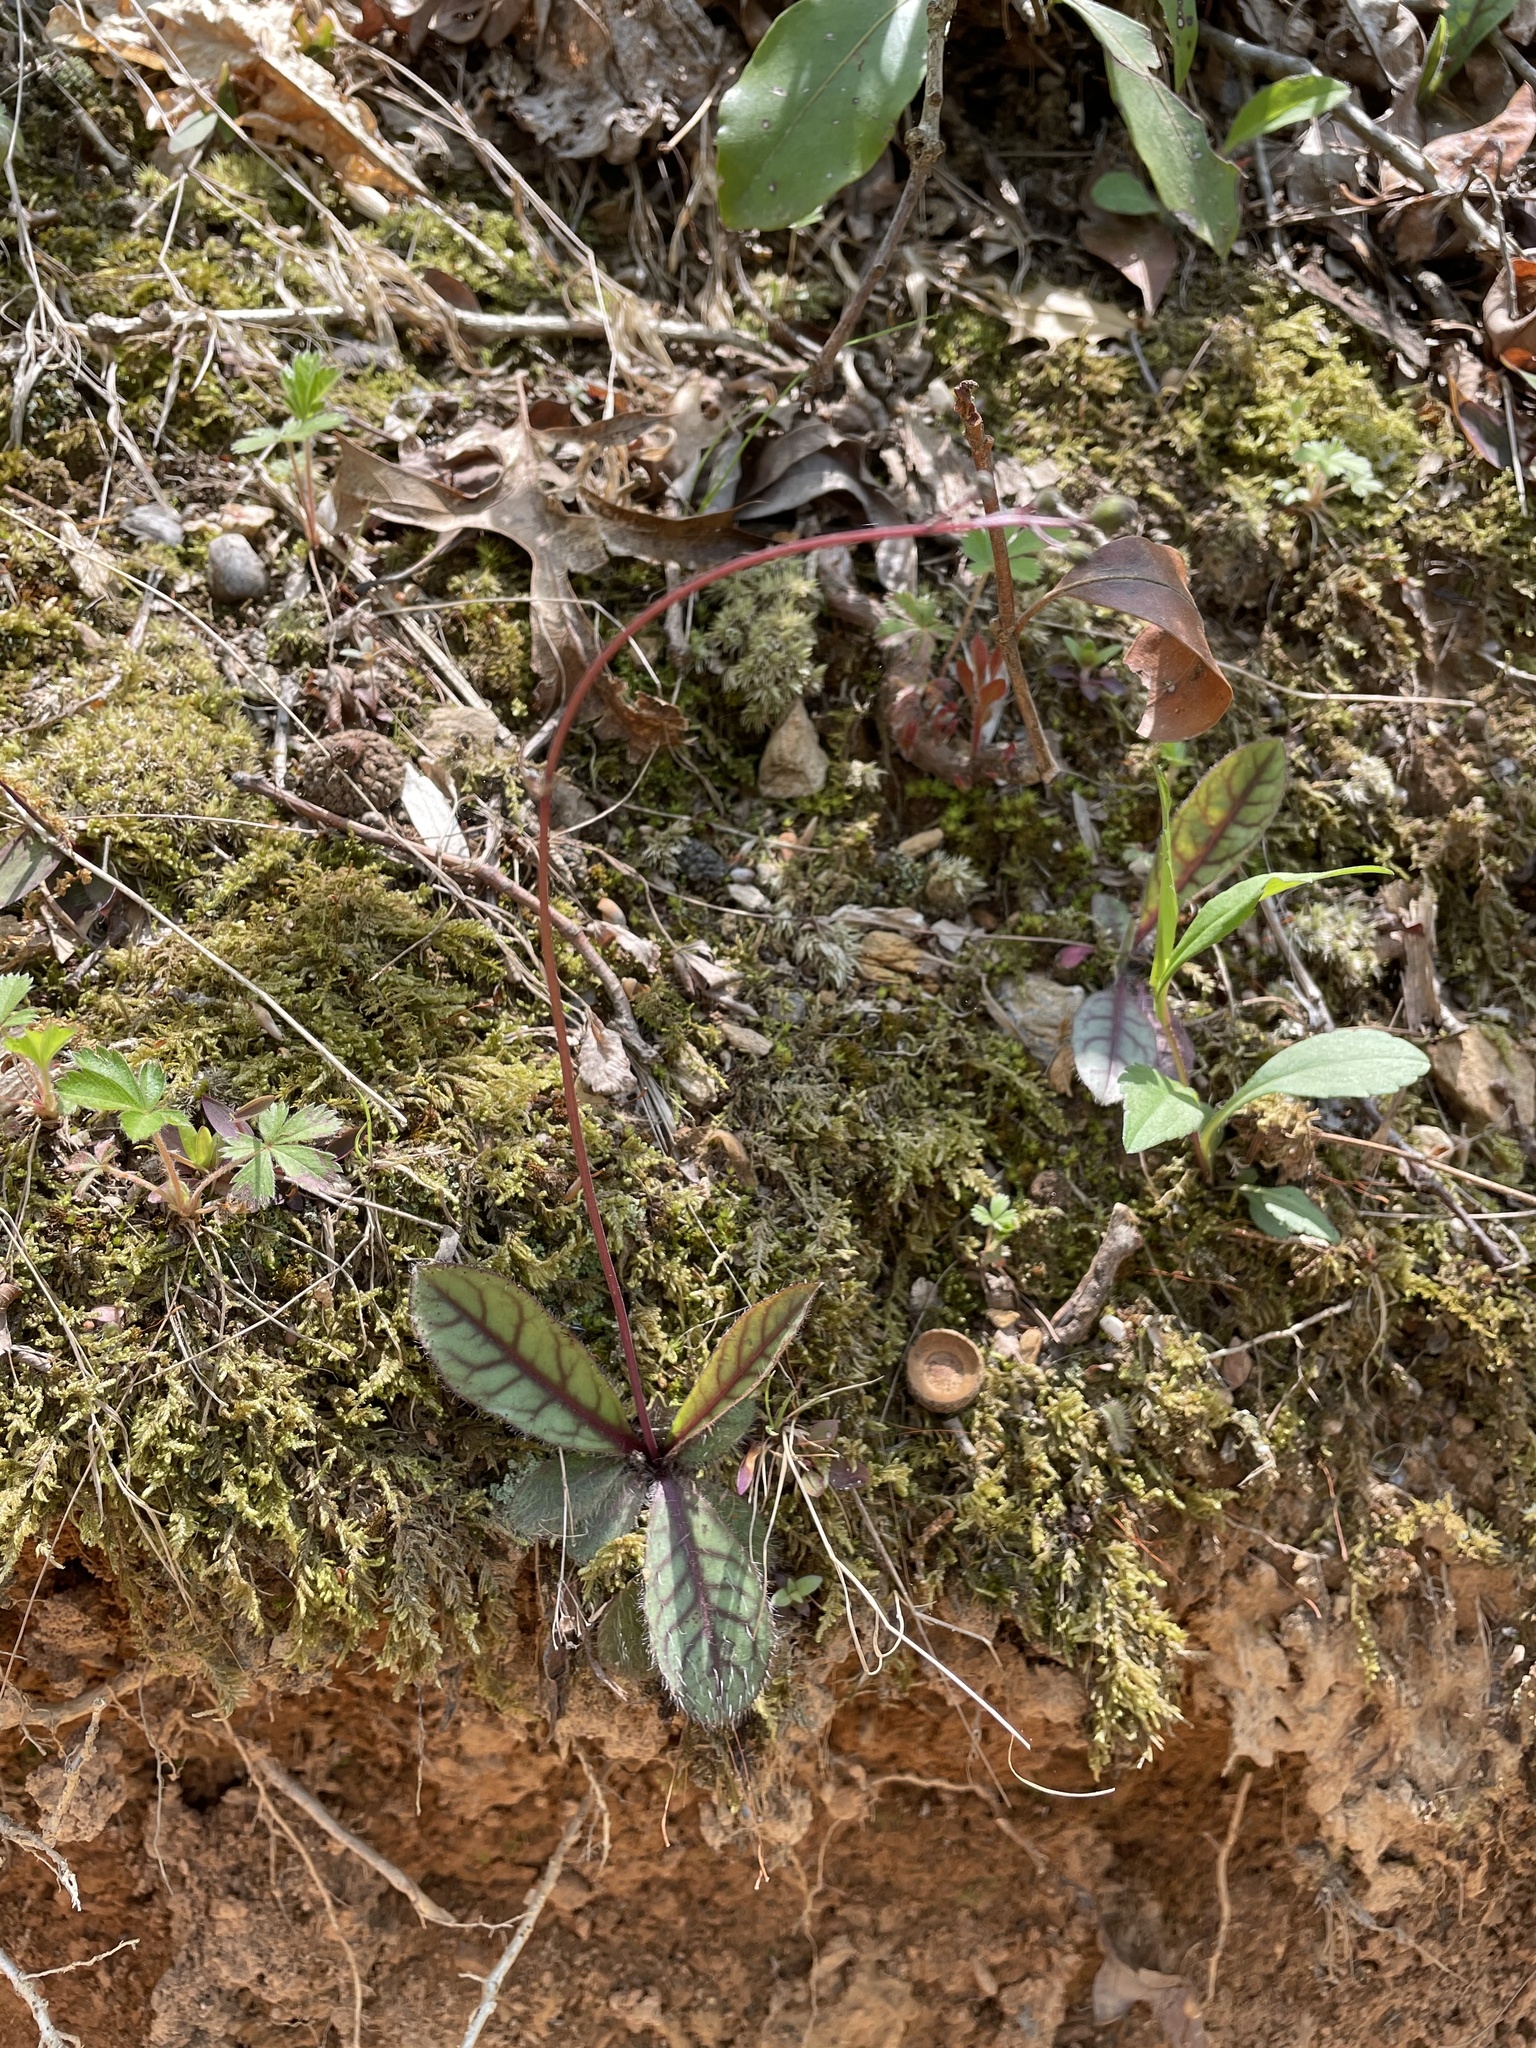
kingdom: Plantae
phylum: Tracheophyta
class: Magnoliopsida
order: Asterales
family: Asteraceae
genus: Hieracium
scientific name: Hieracium venosum
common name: Rattlesnake hawkweed
